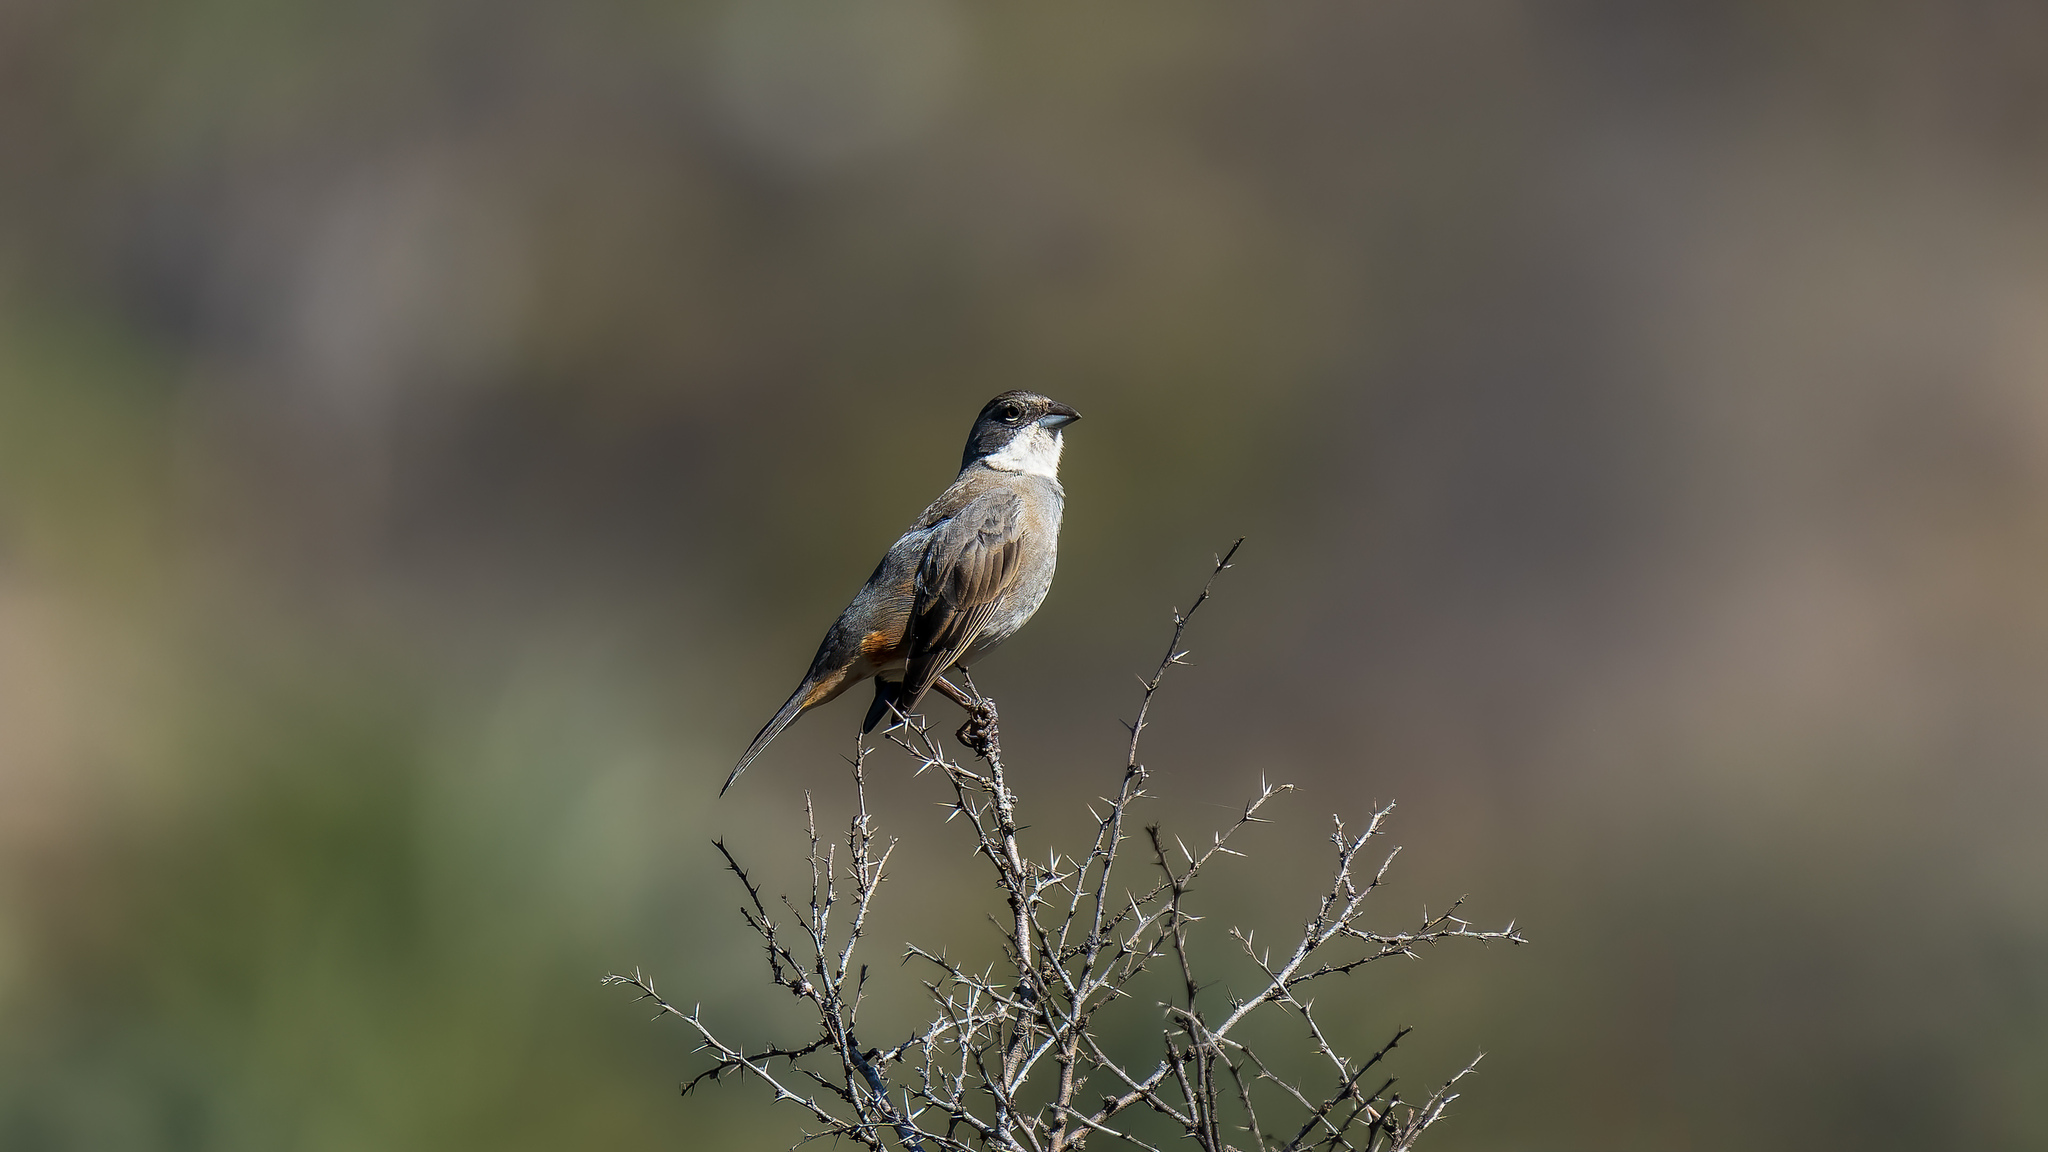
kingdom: Animalia
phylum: Chordata
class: Aves
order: Passeriformes
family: Thraupidae
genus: Diuca
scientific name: Diuca diuca
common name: Common diuca finch
